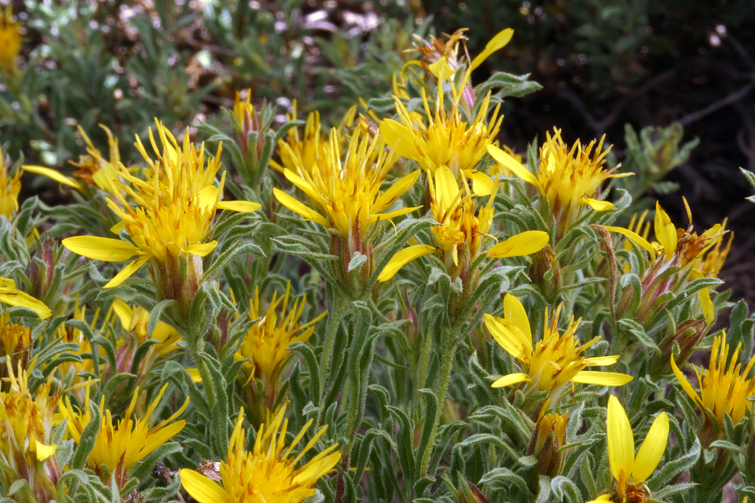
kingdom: Plantae
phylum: Tracheophyta
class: Magnoliopsida
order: Asterales
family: Asteraceae
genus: Ericameria
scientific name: Ericameria suffruticosa
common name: Goldenweed
